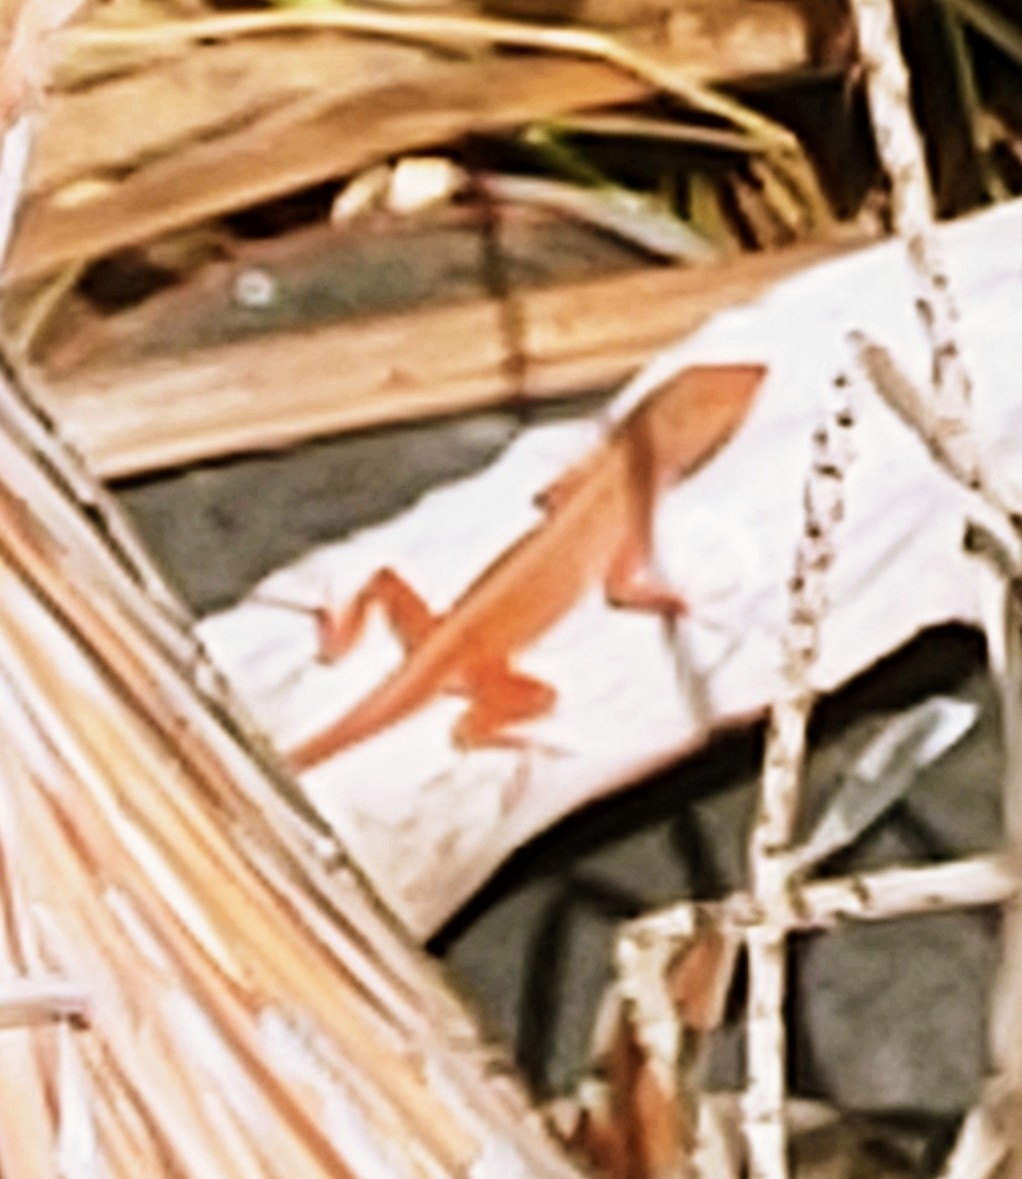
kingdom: Animalia
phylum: Chordata
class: Squamata
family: Dactyloidae
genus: Anolis
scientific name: Anolis sagrei
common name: Brown anole
